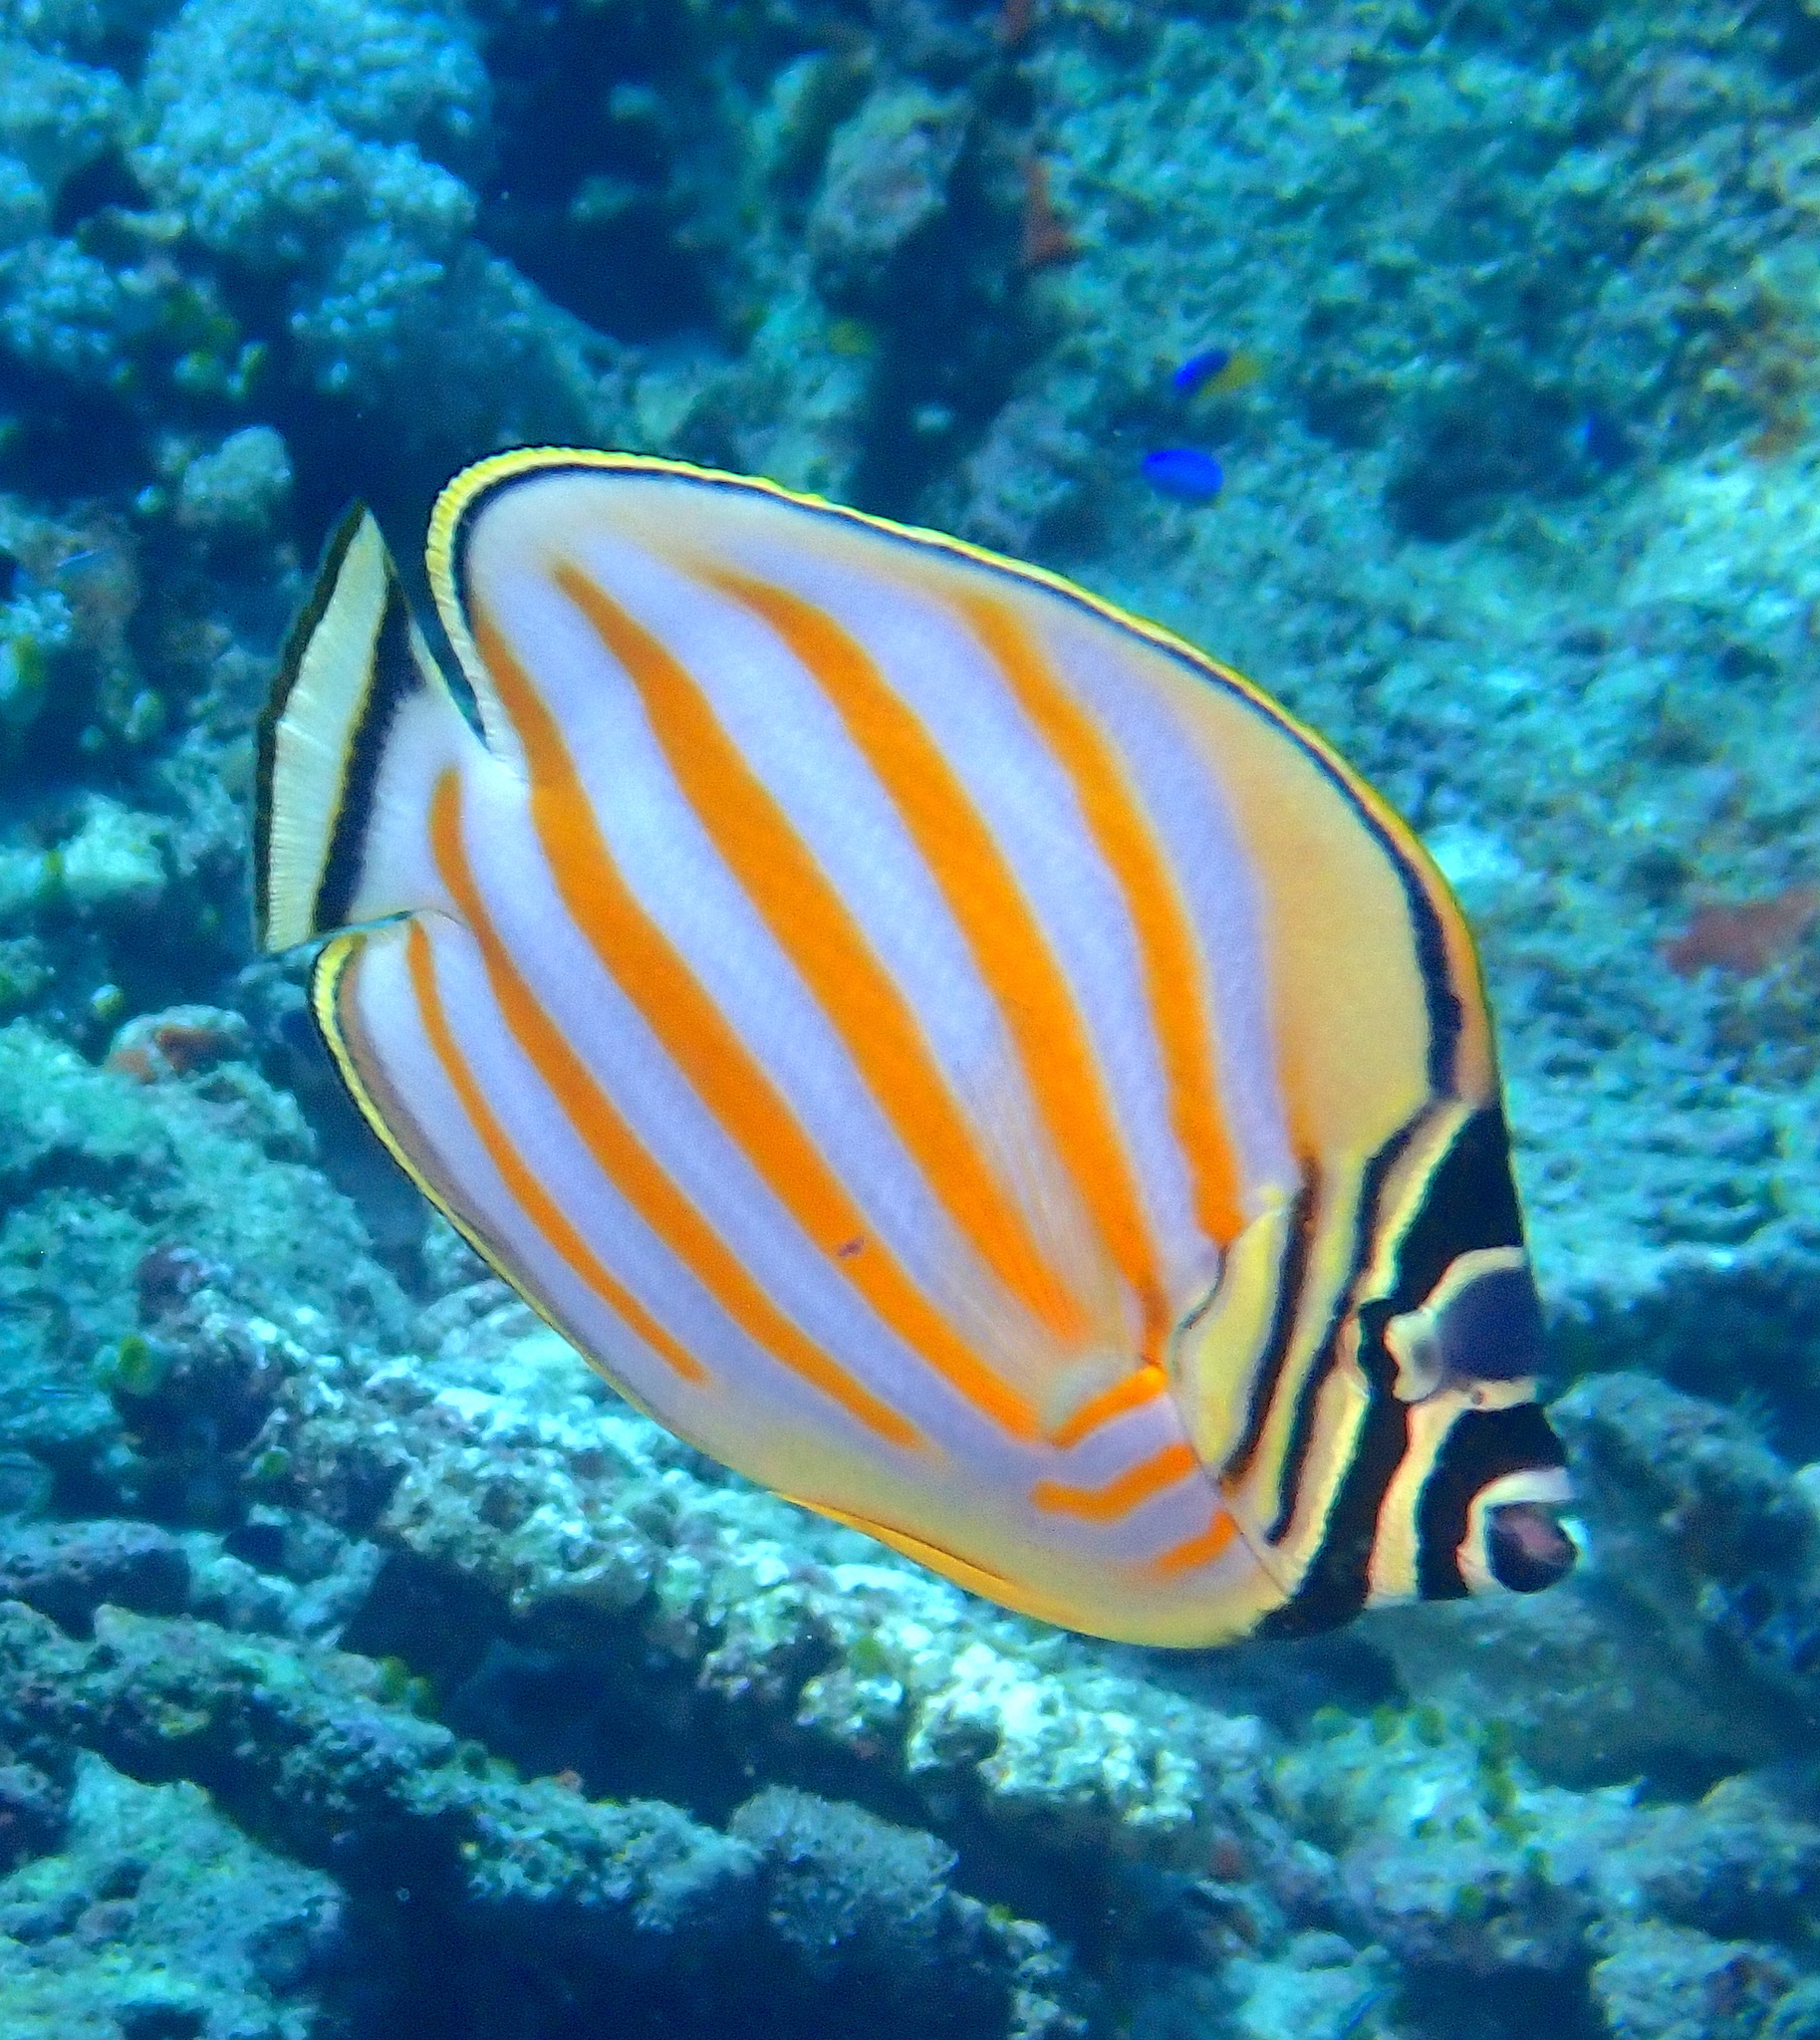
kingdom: Animalia
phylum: Chordata
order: Perciformes
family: Chaetodontidae
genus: Chaetodon
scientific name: Chaetodon ornatissimus
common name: Ornate butterflyfish
